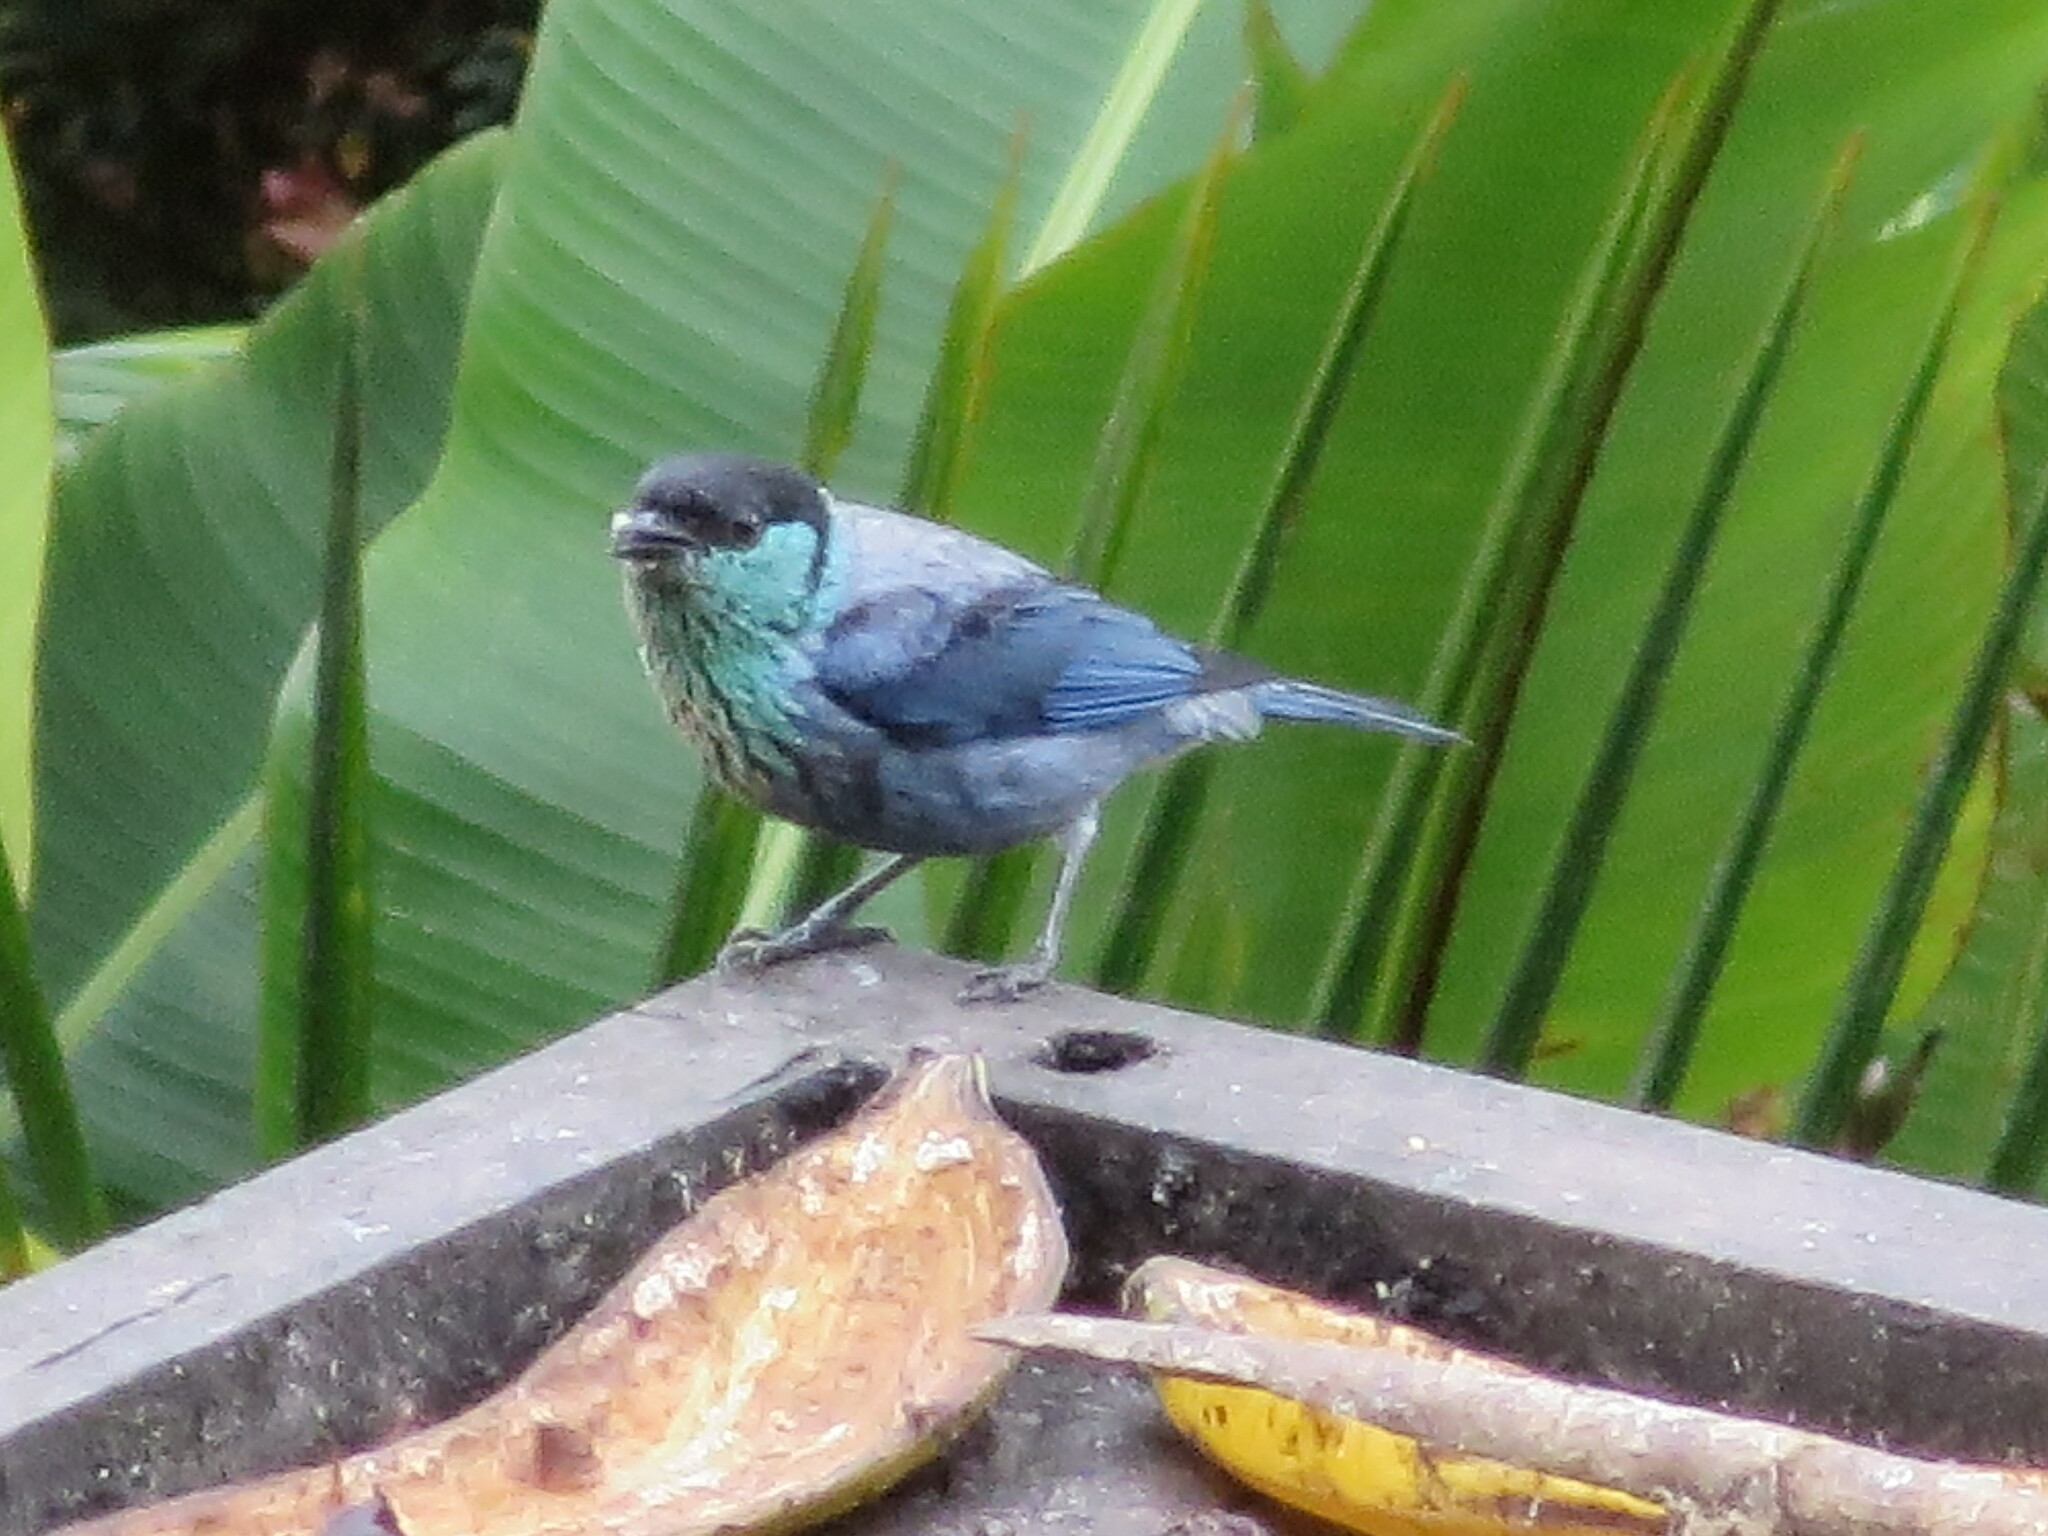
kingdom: Animalia
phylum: Chordata
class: Aves
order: Passeriformes
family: Thraupidae
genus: Stilpnia
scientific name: Stilpnia heinei
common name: Black-capped tanager
